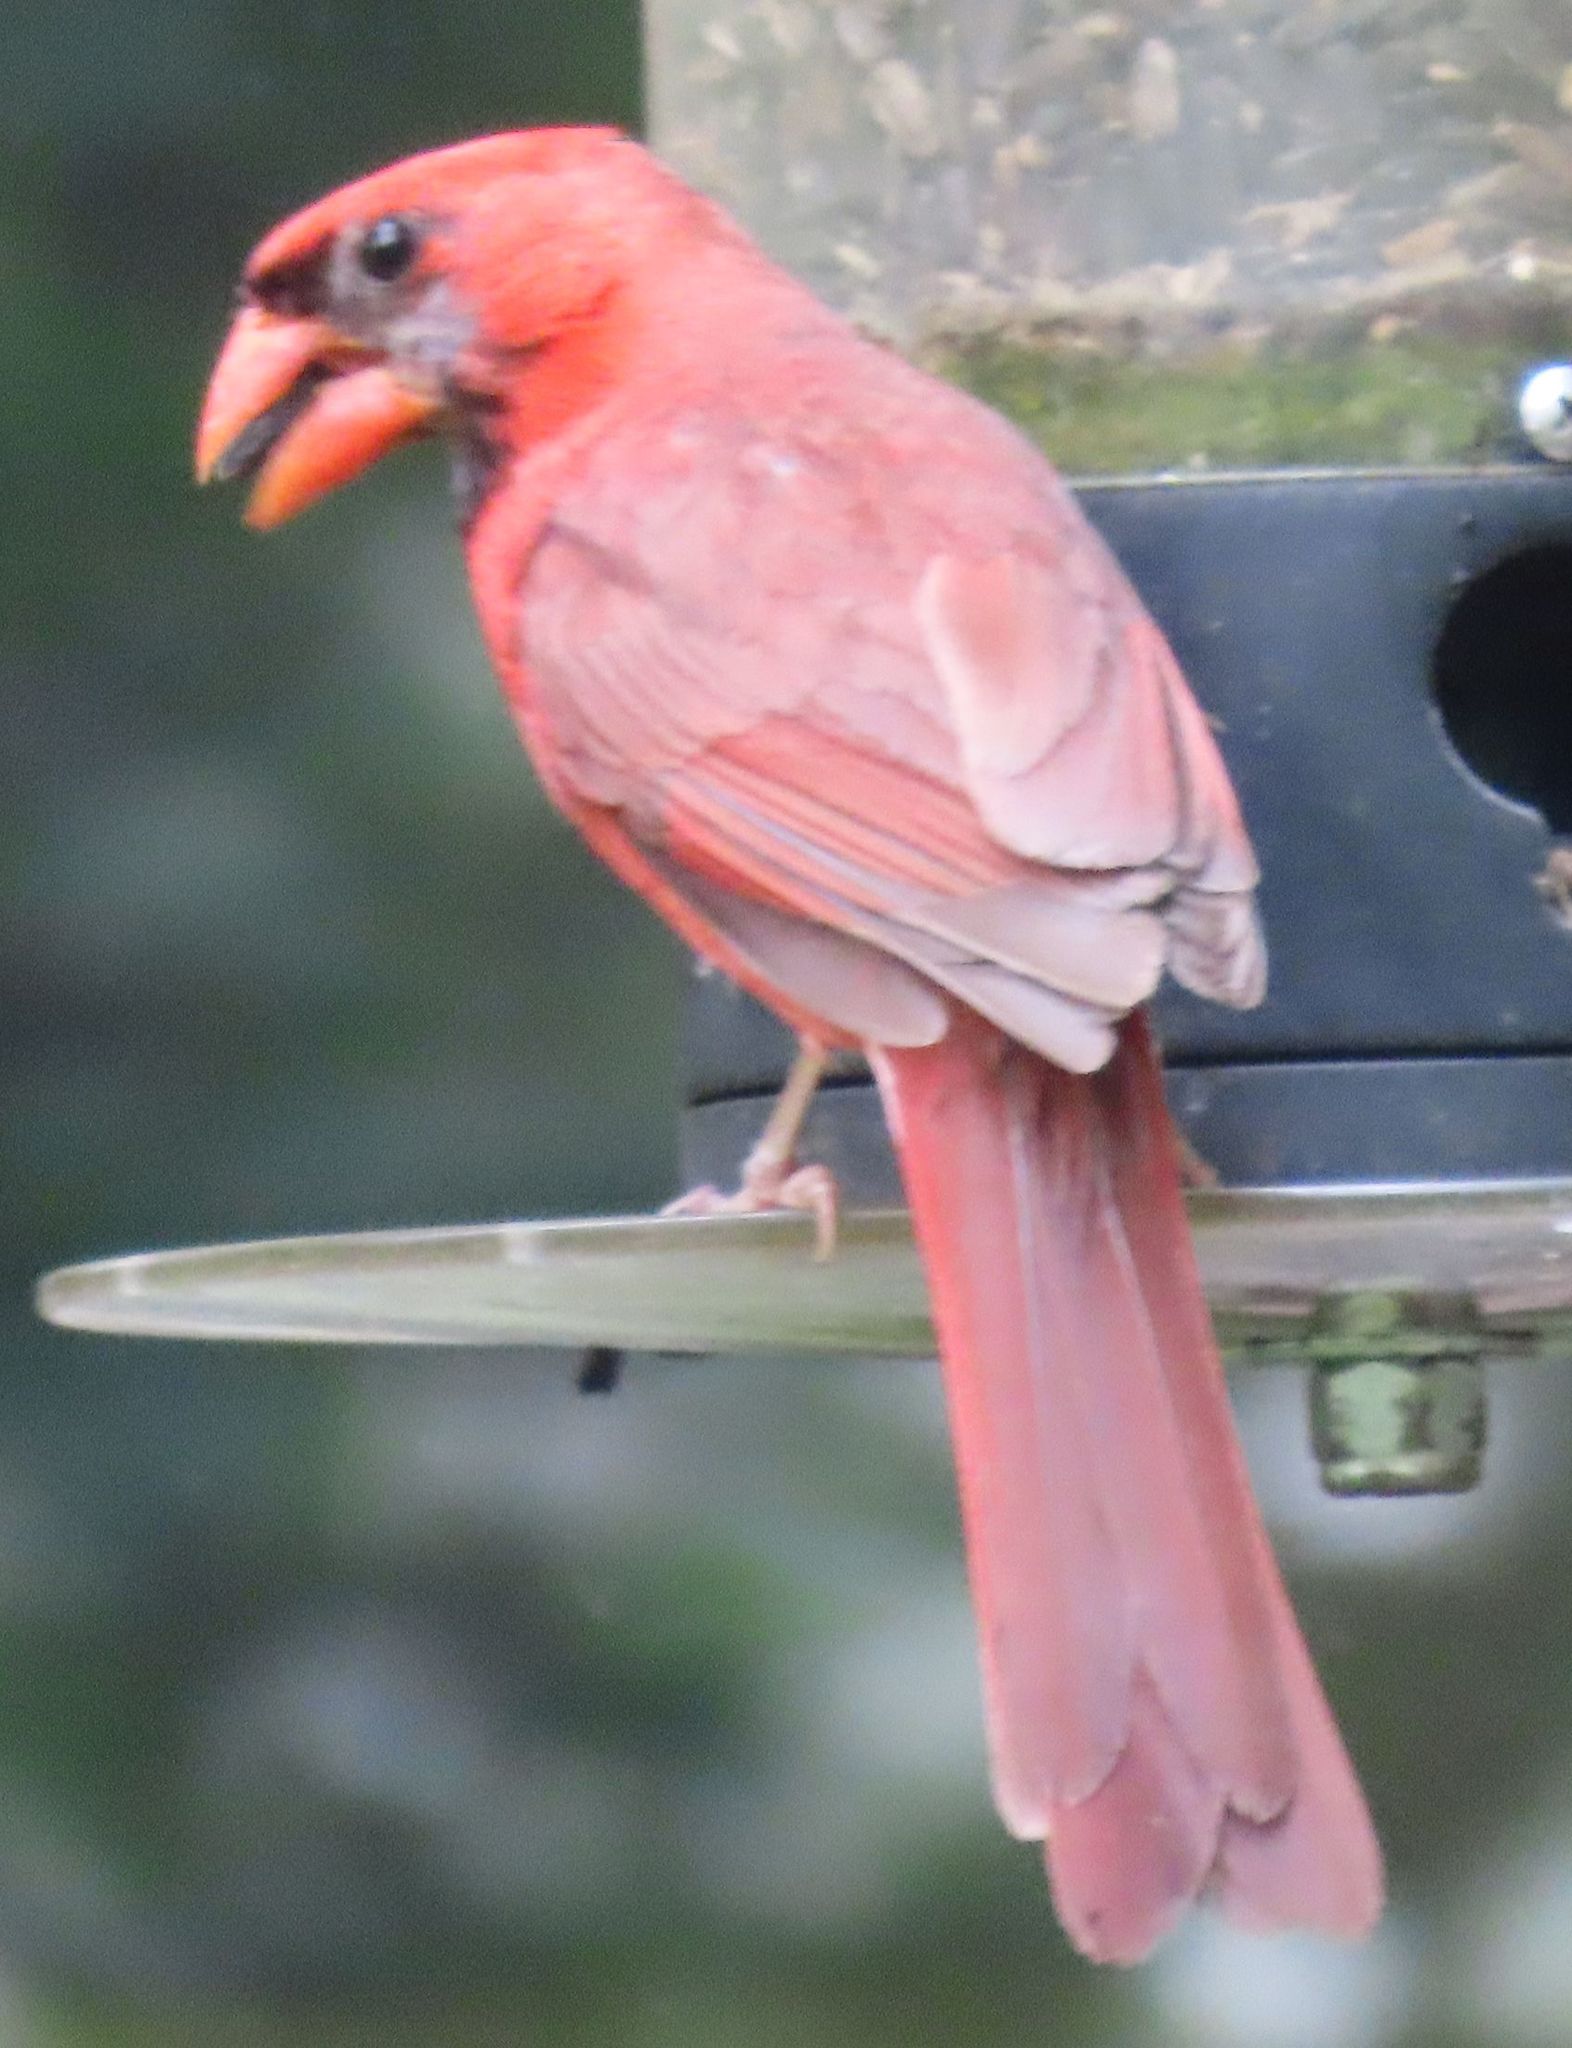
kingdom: Animalia
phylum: Chordata
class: Aves
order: Passeriformes
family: Cardinalidae
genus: Cardinalis
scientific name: Cardinalis cardinalis
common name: Northern cardinal
